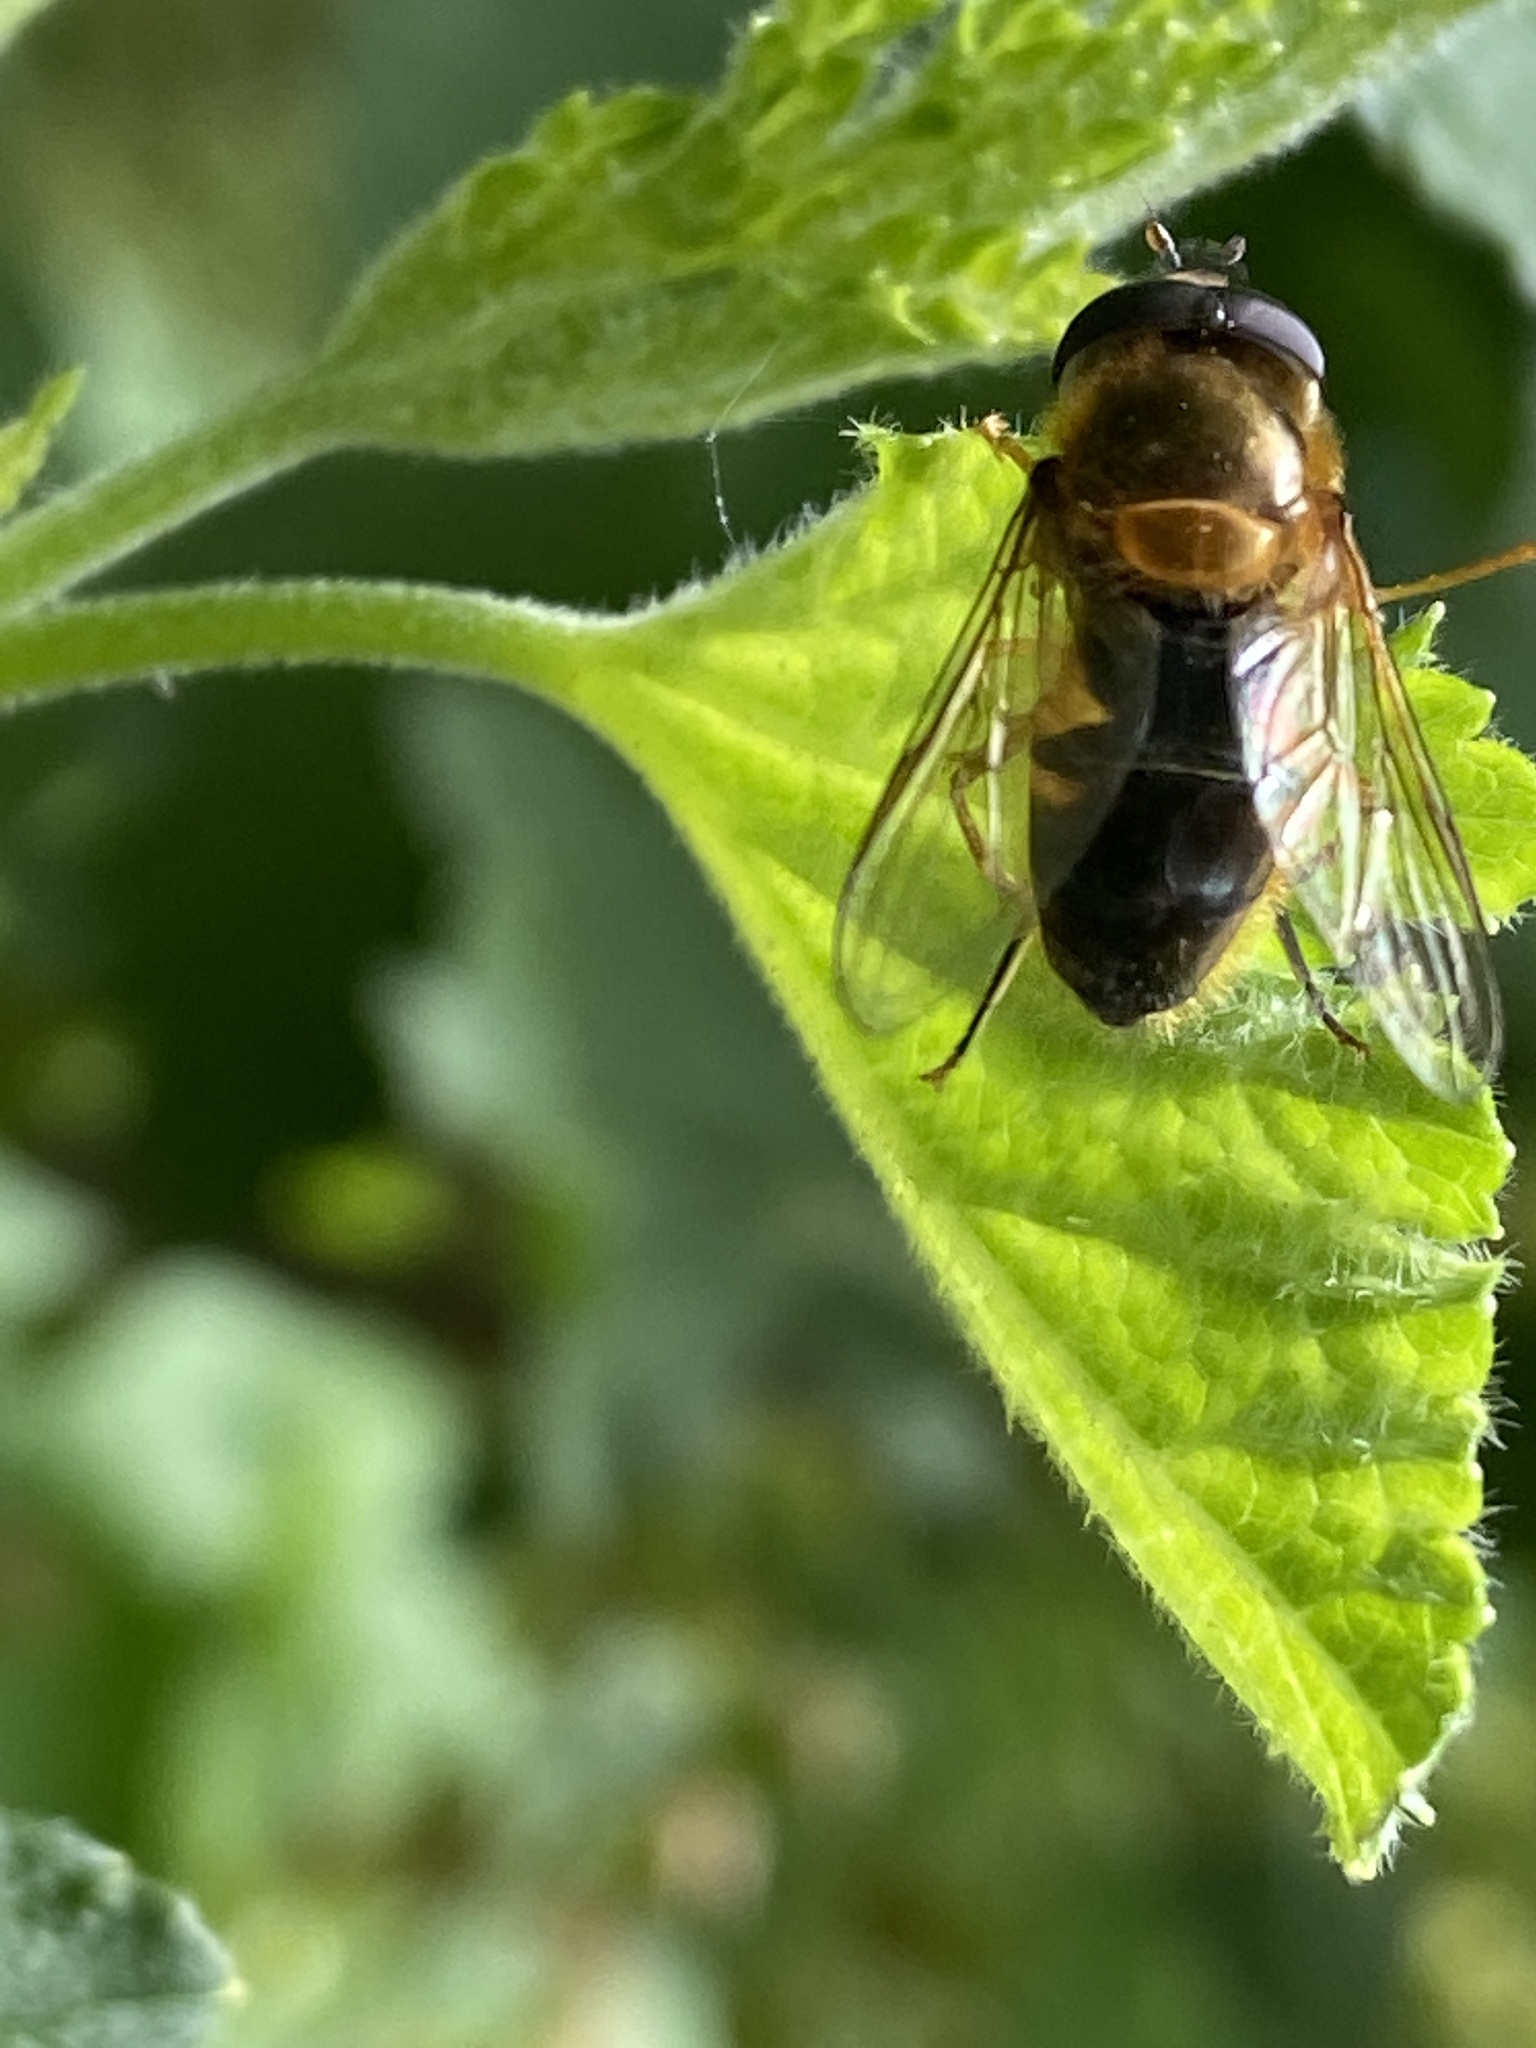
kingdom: Animalia
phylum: Arthropoda
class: Insecta
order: Diptera
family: Syrphidae
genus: Epistrophe
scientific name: Epistrophe eligans
